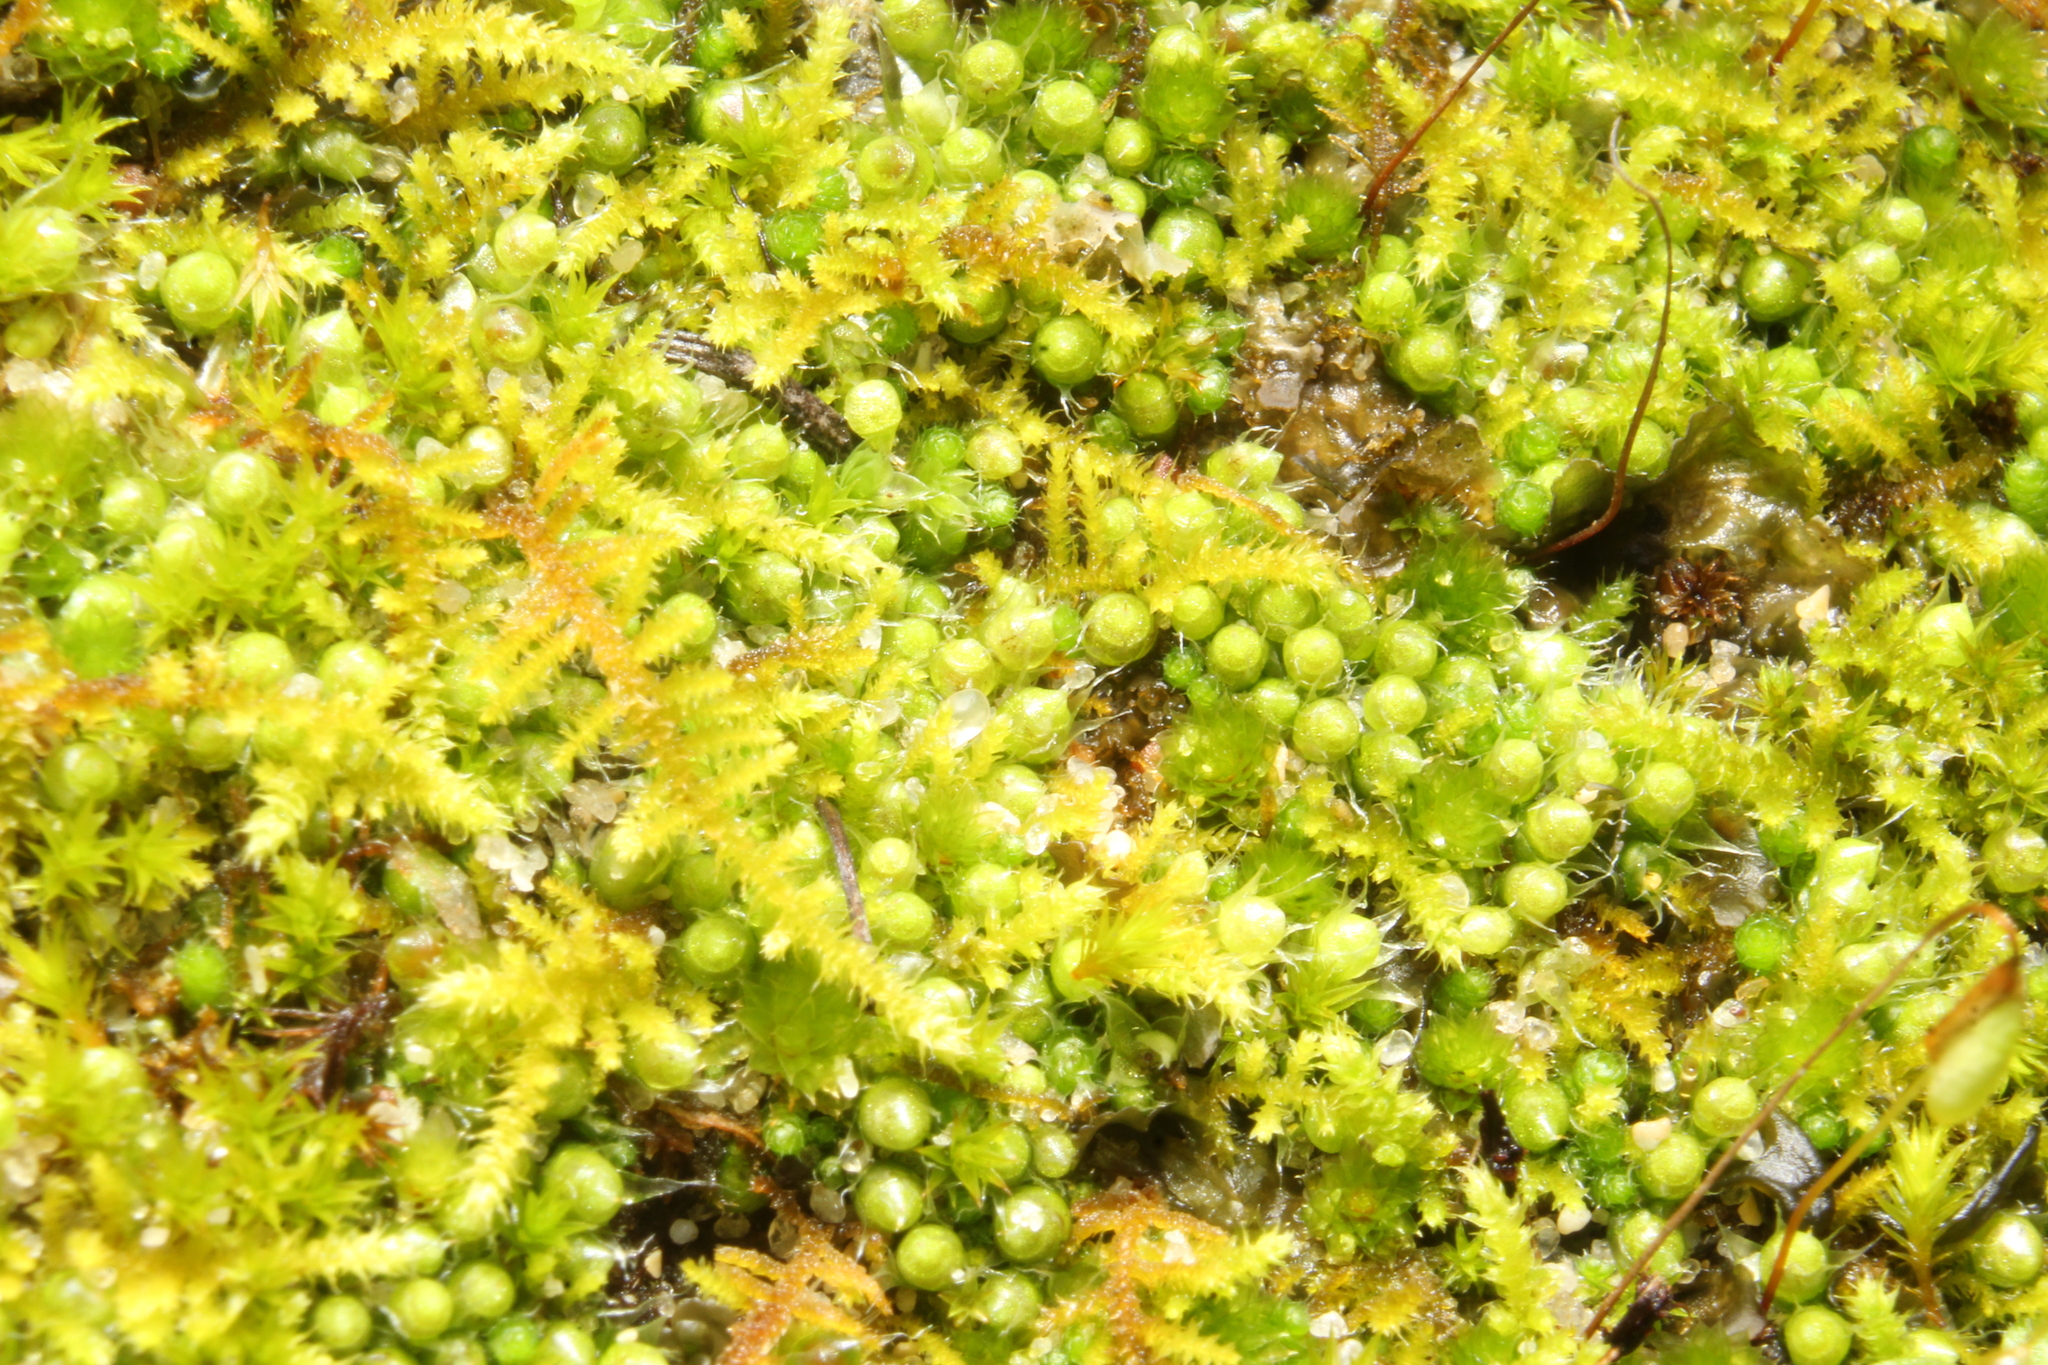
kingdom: Plantae
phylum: Bryophyta
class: Bryopsida
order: Gigaspermales
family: Gigaspermaceae
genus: Gigaspermum
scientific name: Gigaspermum repens
